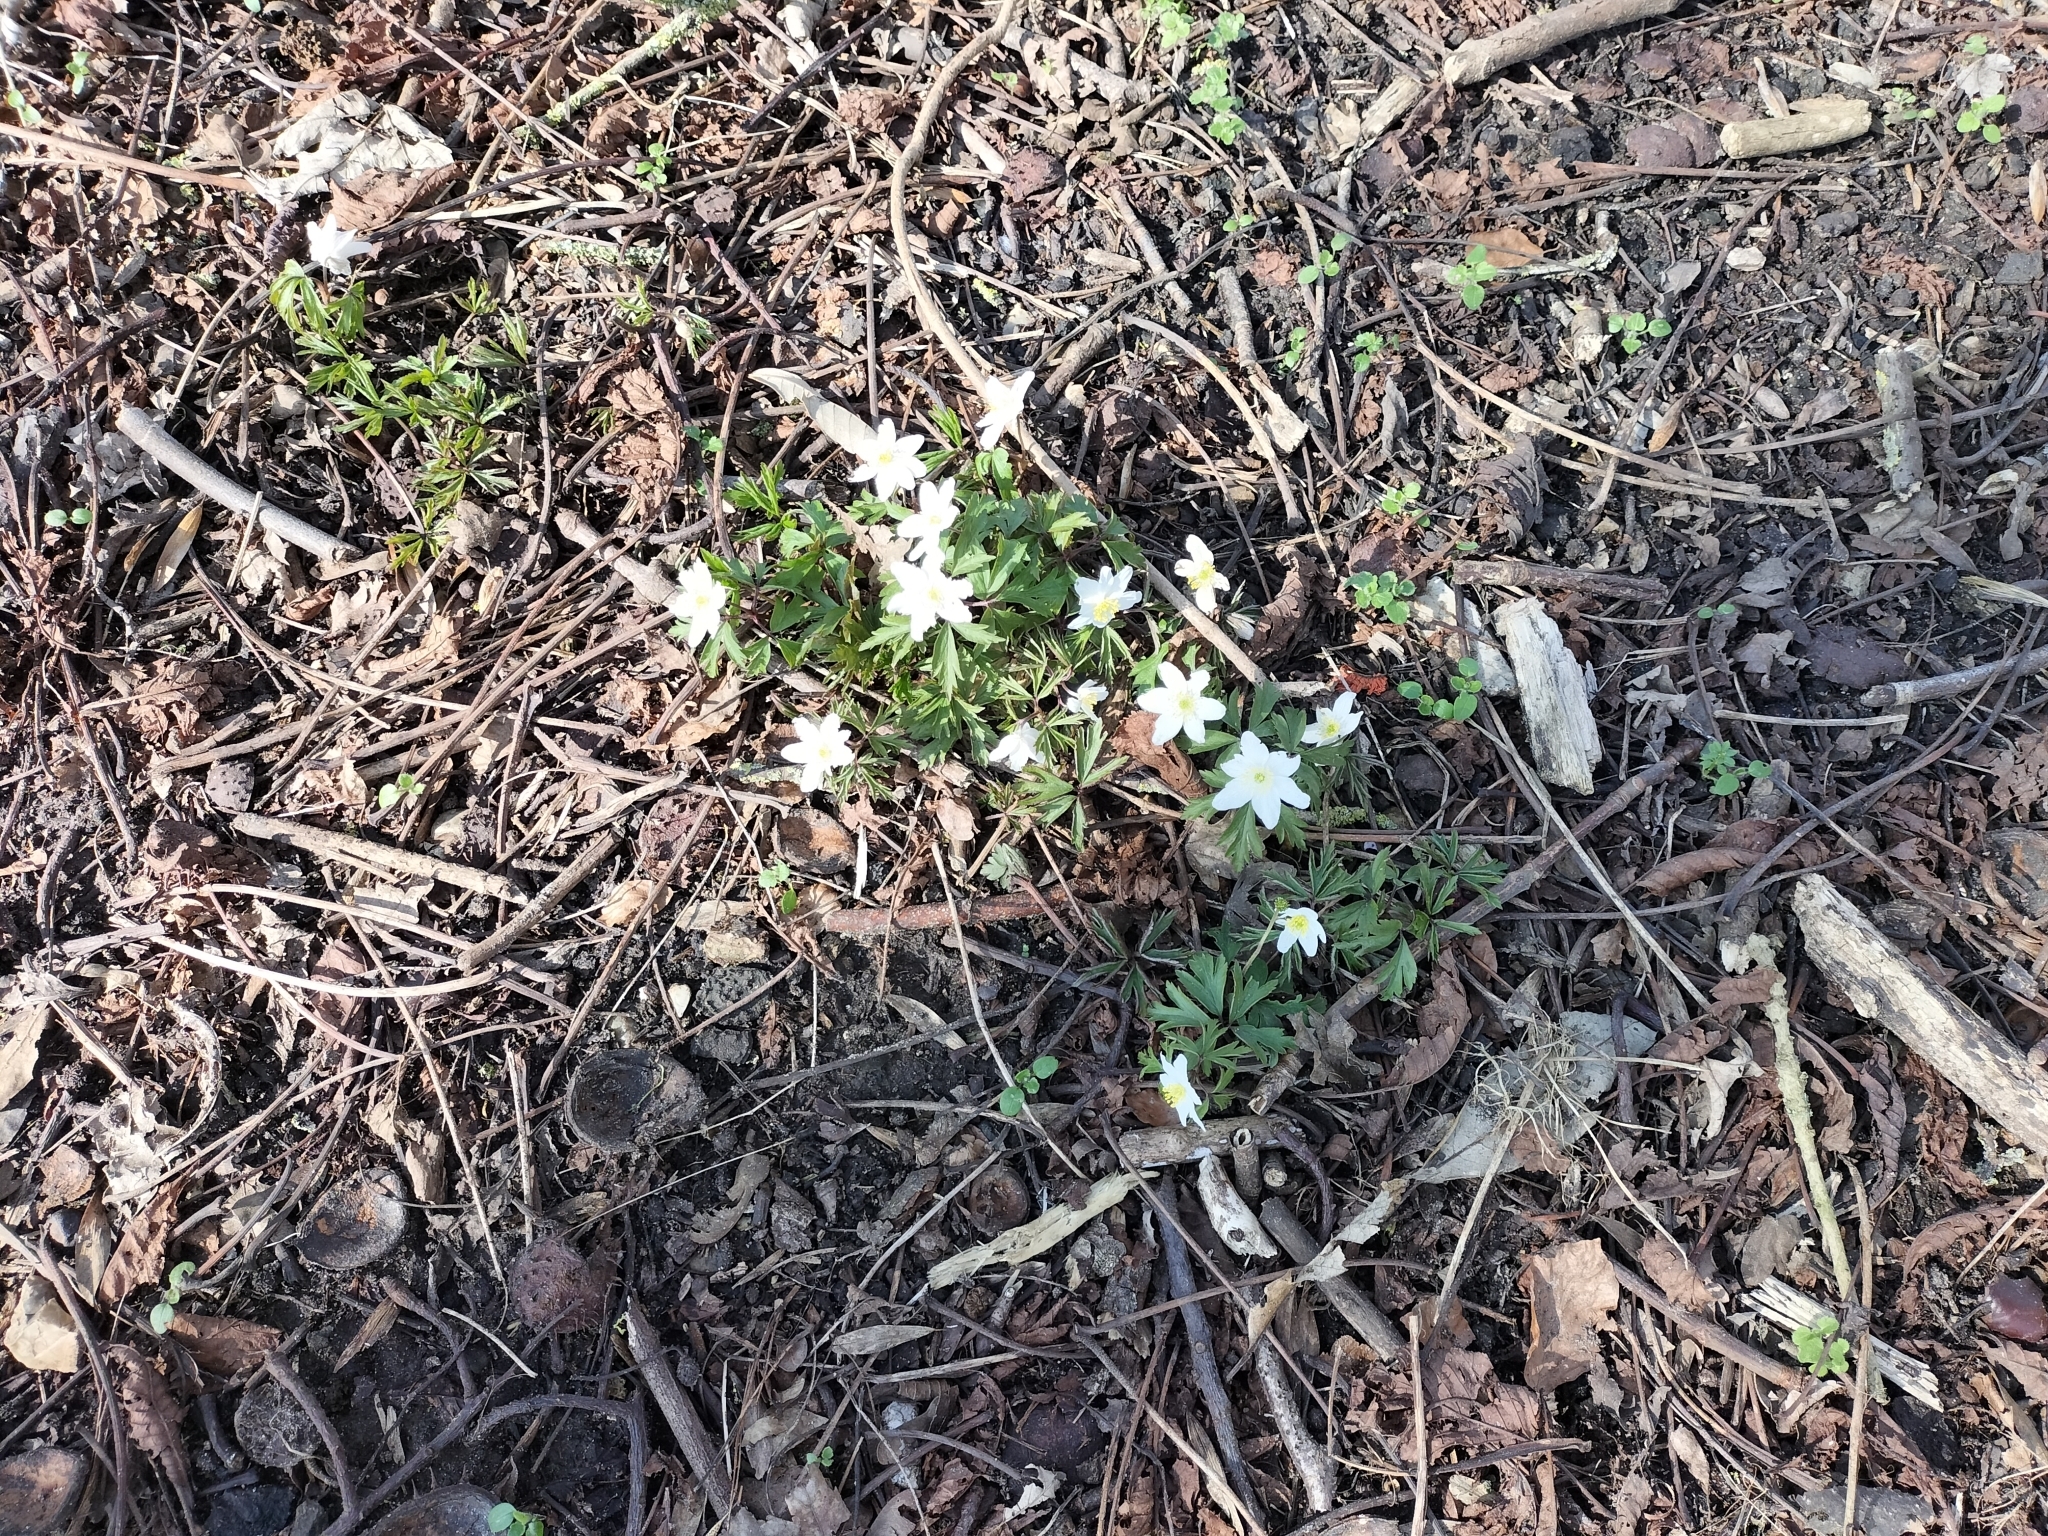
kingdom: Plantae
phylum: Tracheophyta
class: Magnoliopsida
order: Ranunculales
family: Ranunculaceae
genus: Anemone
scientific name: Anemone nemorosa
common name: Wood anemone
